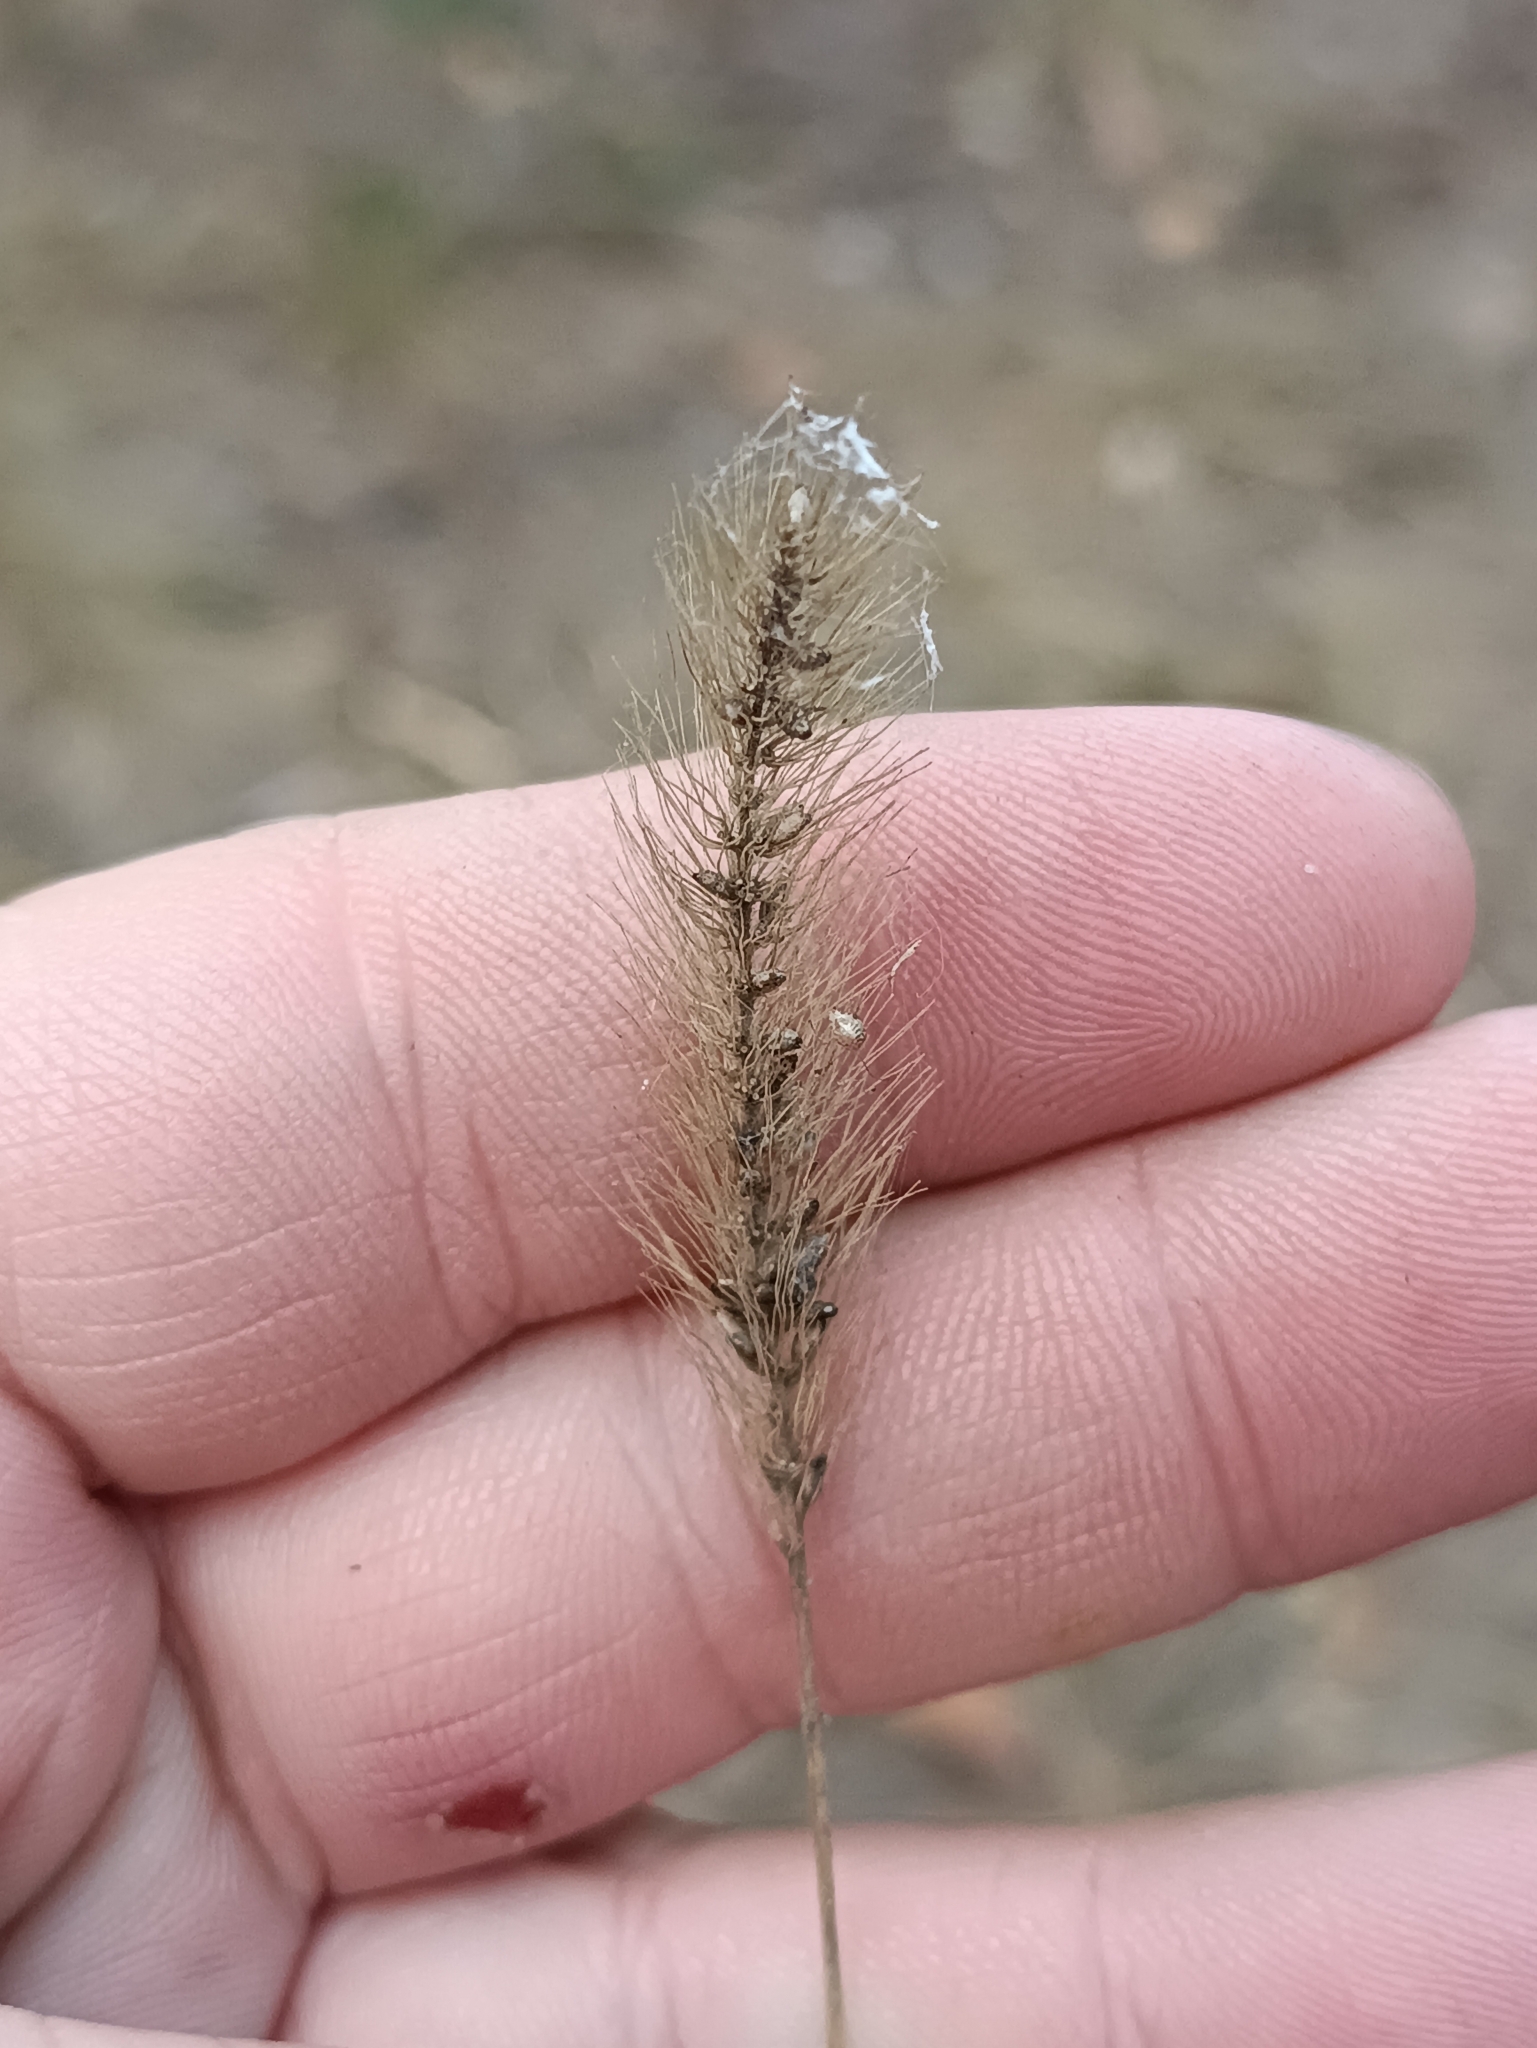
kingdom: Plantae
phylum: Tracheophyta
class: Liliopsida
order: Poales
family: Poaceae
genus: Setaria
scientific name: Setaria viridis
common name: Green bristlegrass
